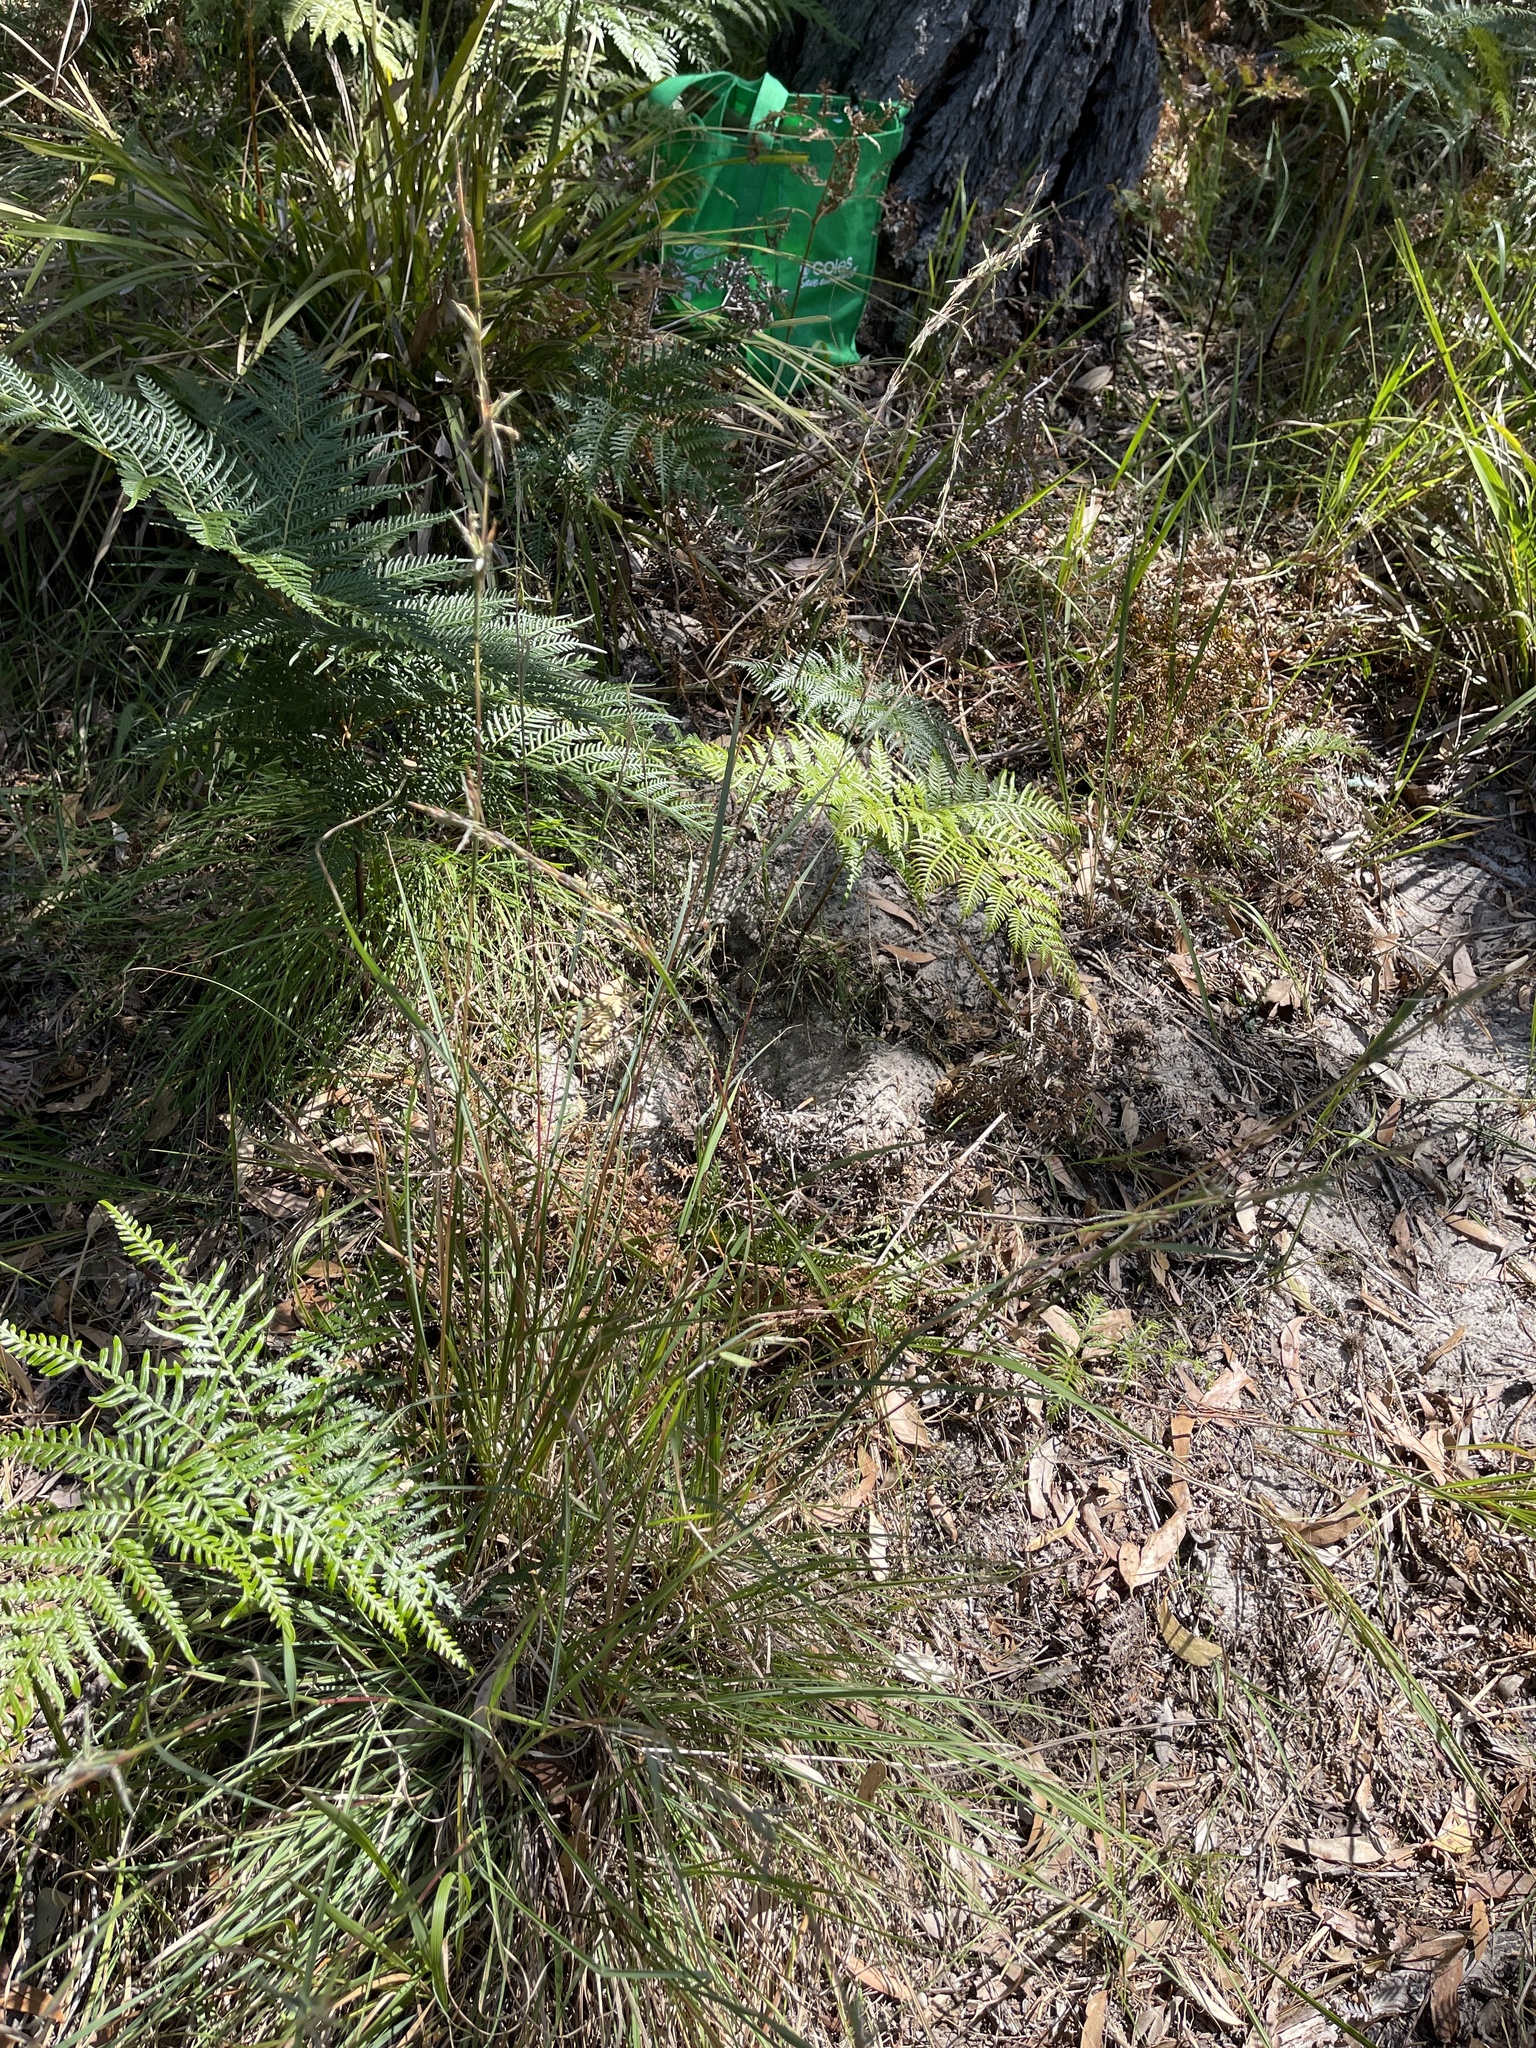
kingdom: Plantae
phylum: Tracheophyta
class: Liliopsida
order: Poales
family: Poaceae
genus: Cymbopogon
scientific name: Cymbopogon refractus
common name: Barbwire grass
